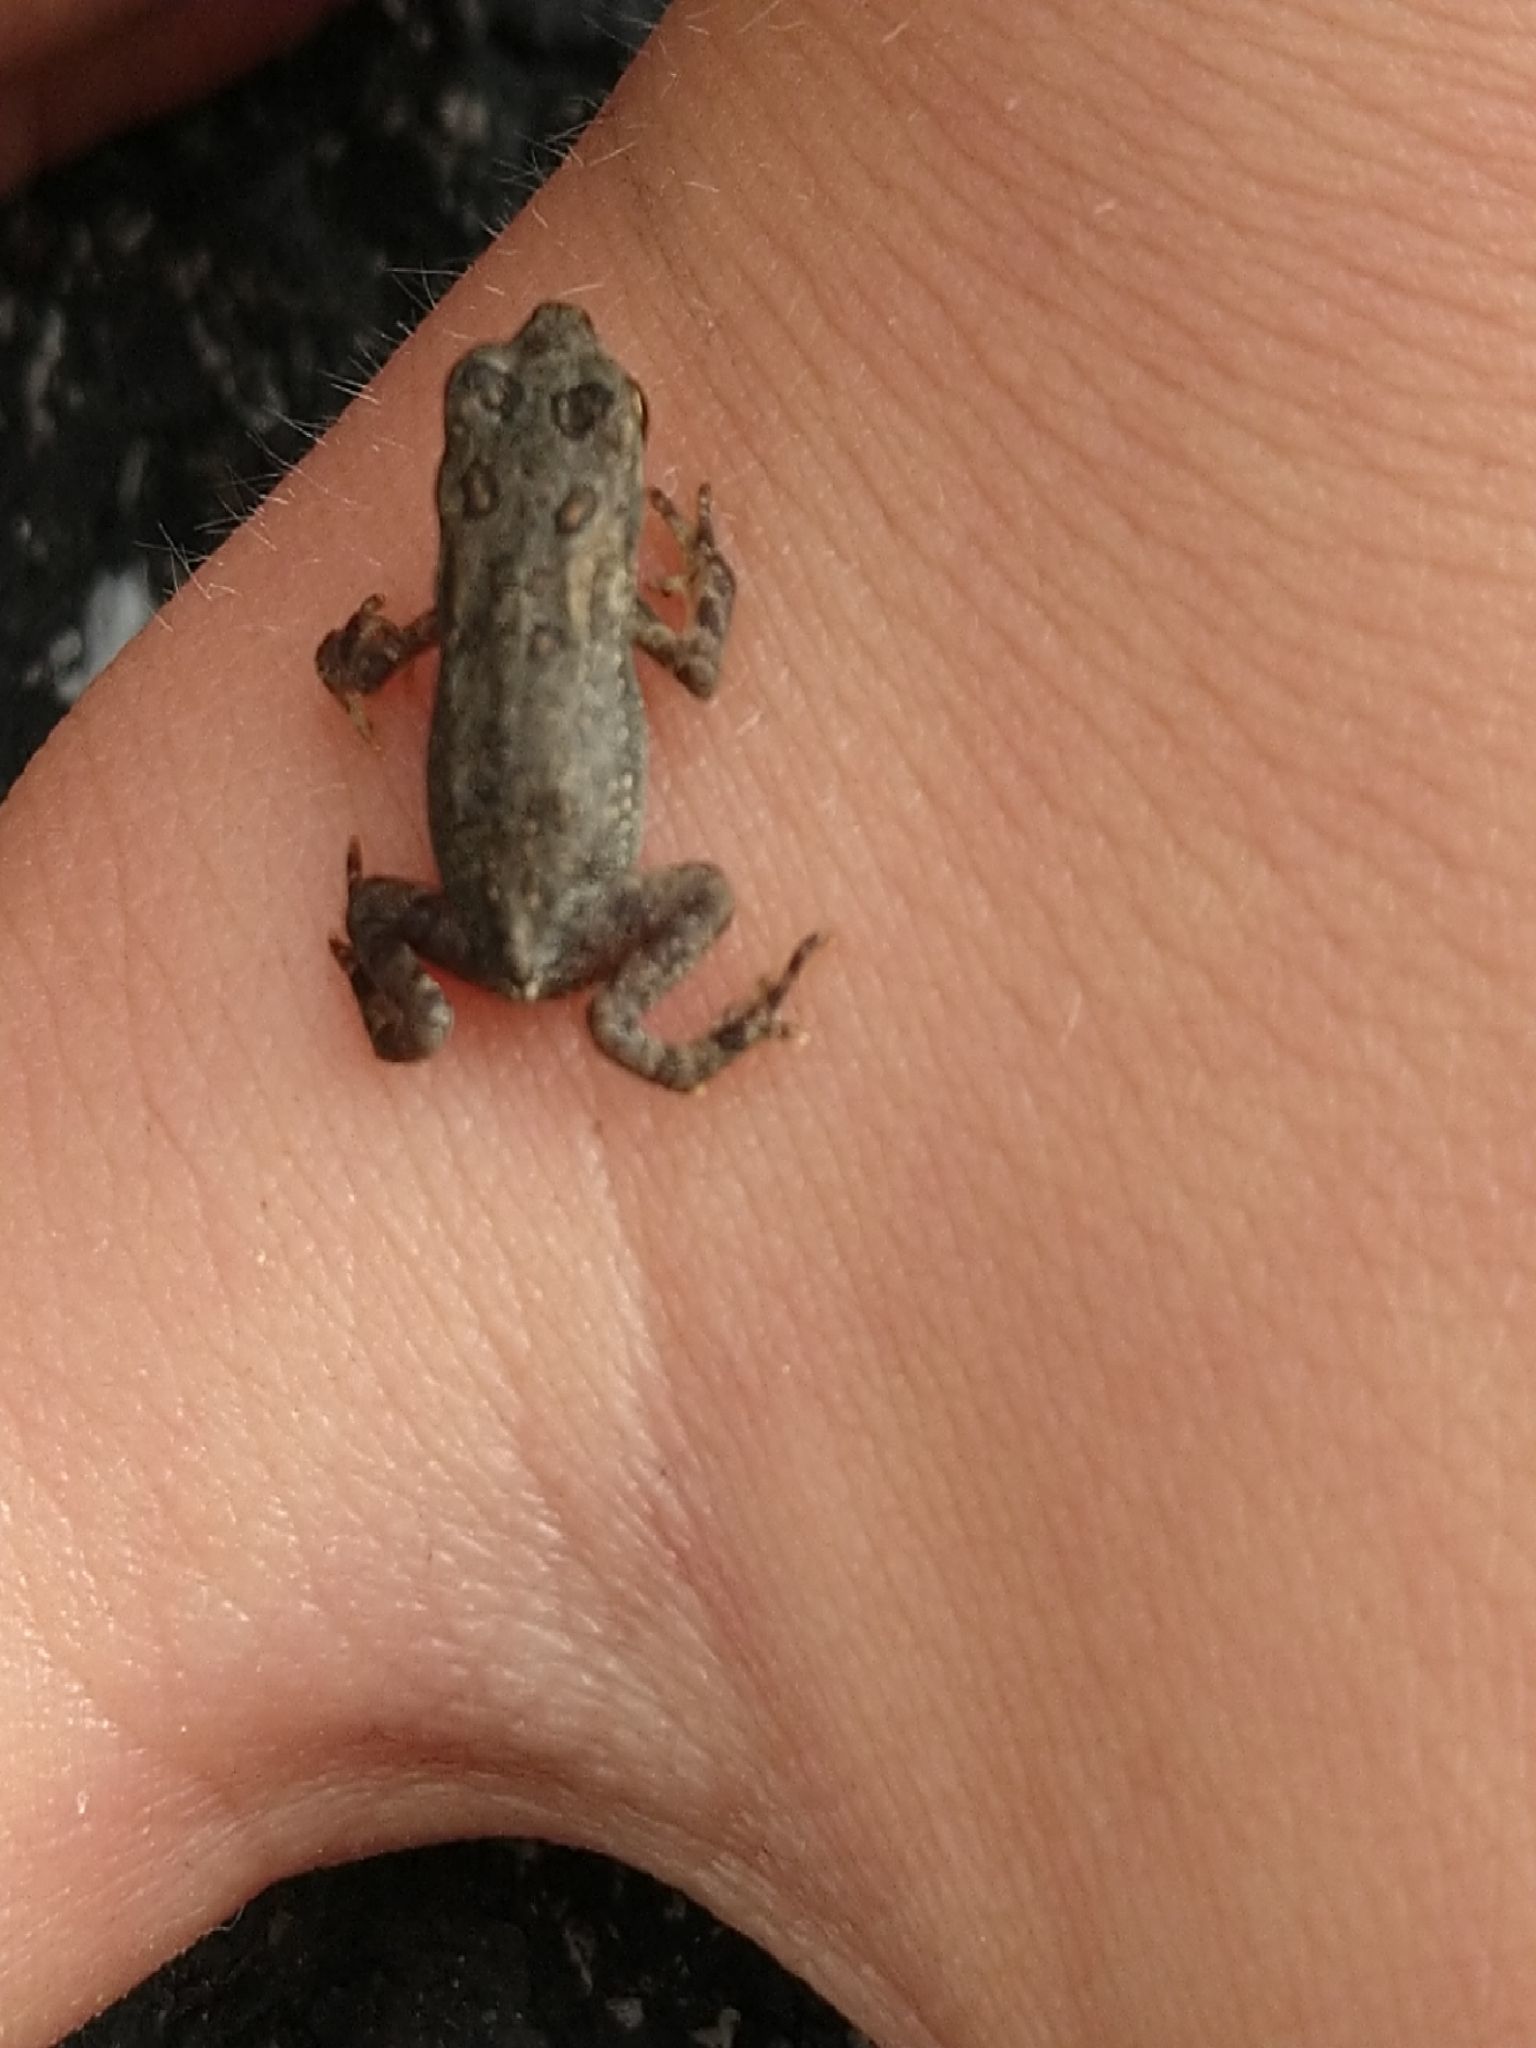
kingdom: Animalia
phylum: Chordata
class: Amphibia
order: Anura
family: Bufonidae
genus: Anaxyrus
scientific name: Anaxyrus americanus
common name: American toad
